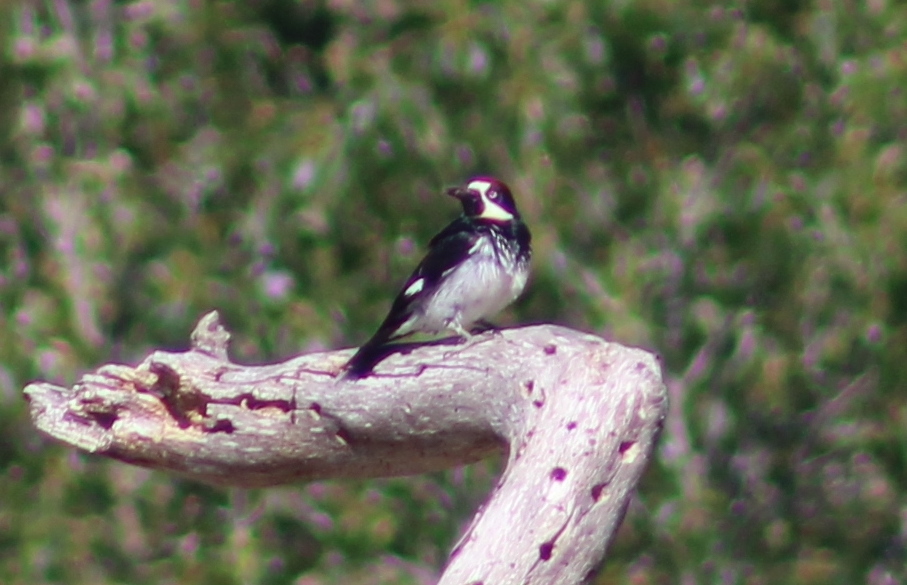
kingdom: Animalia
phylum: Chordata
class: Aves
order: Piciformes
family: Picidae
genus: Melanerpes
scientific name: Melanerpes formicivorus
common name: Acorn woodpecker
